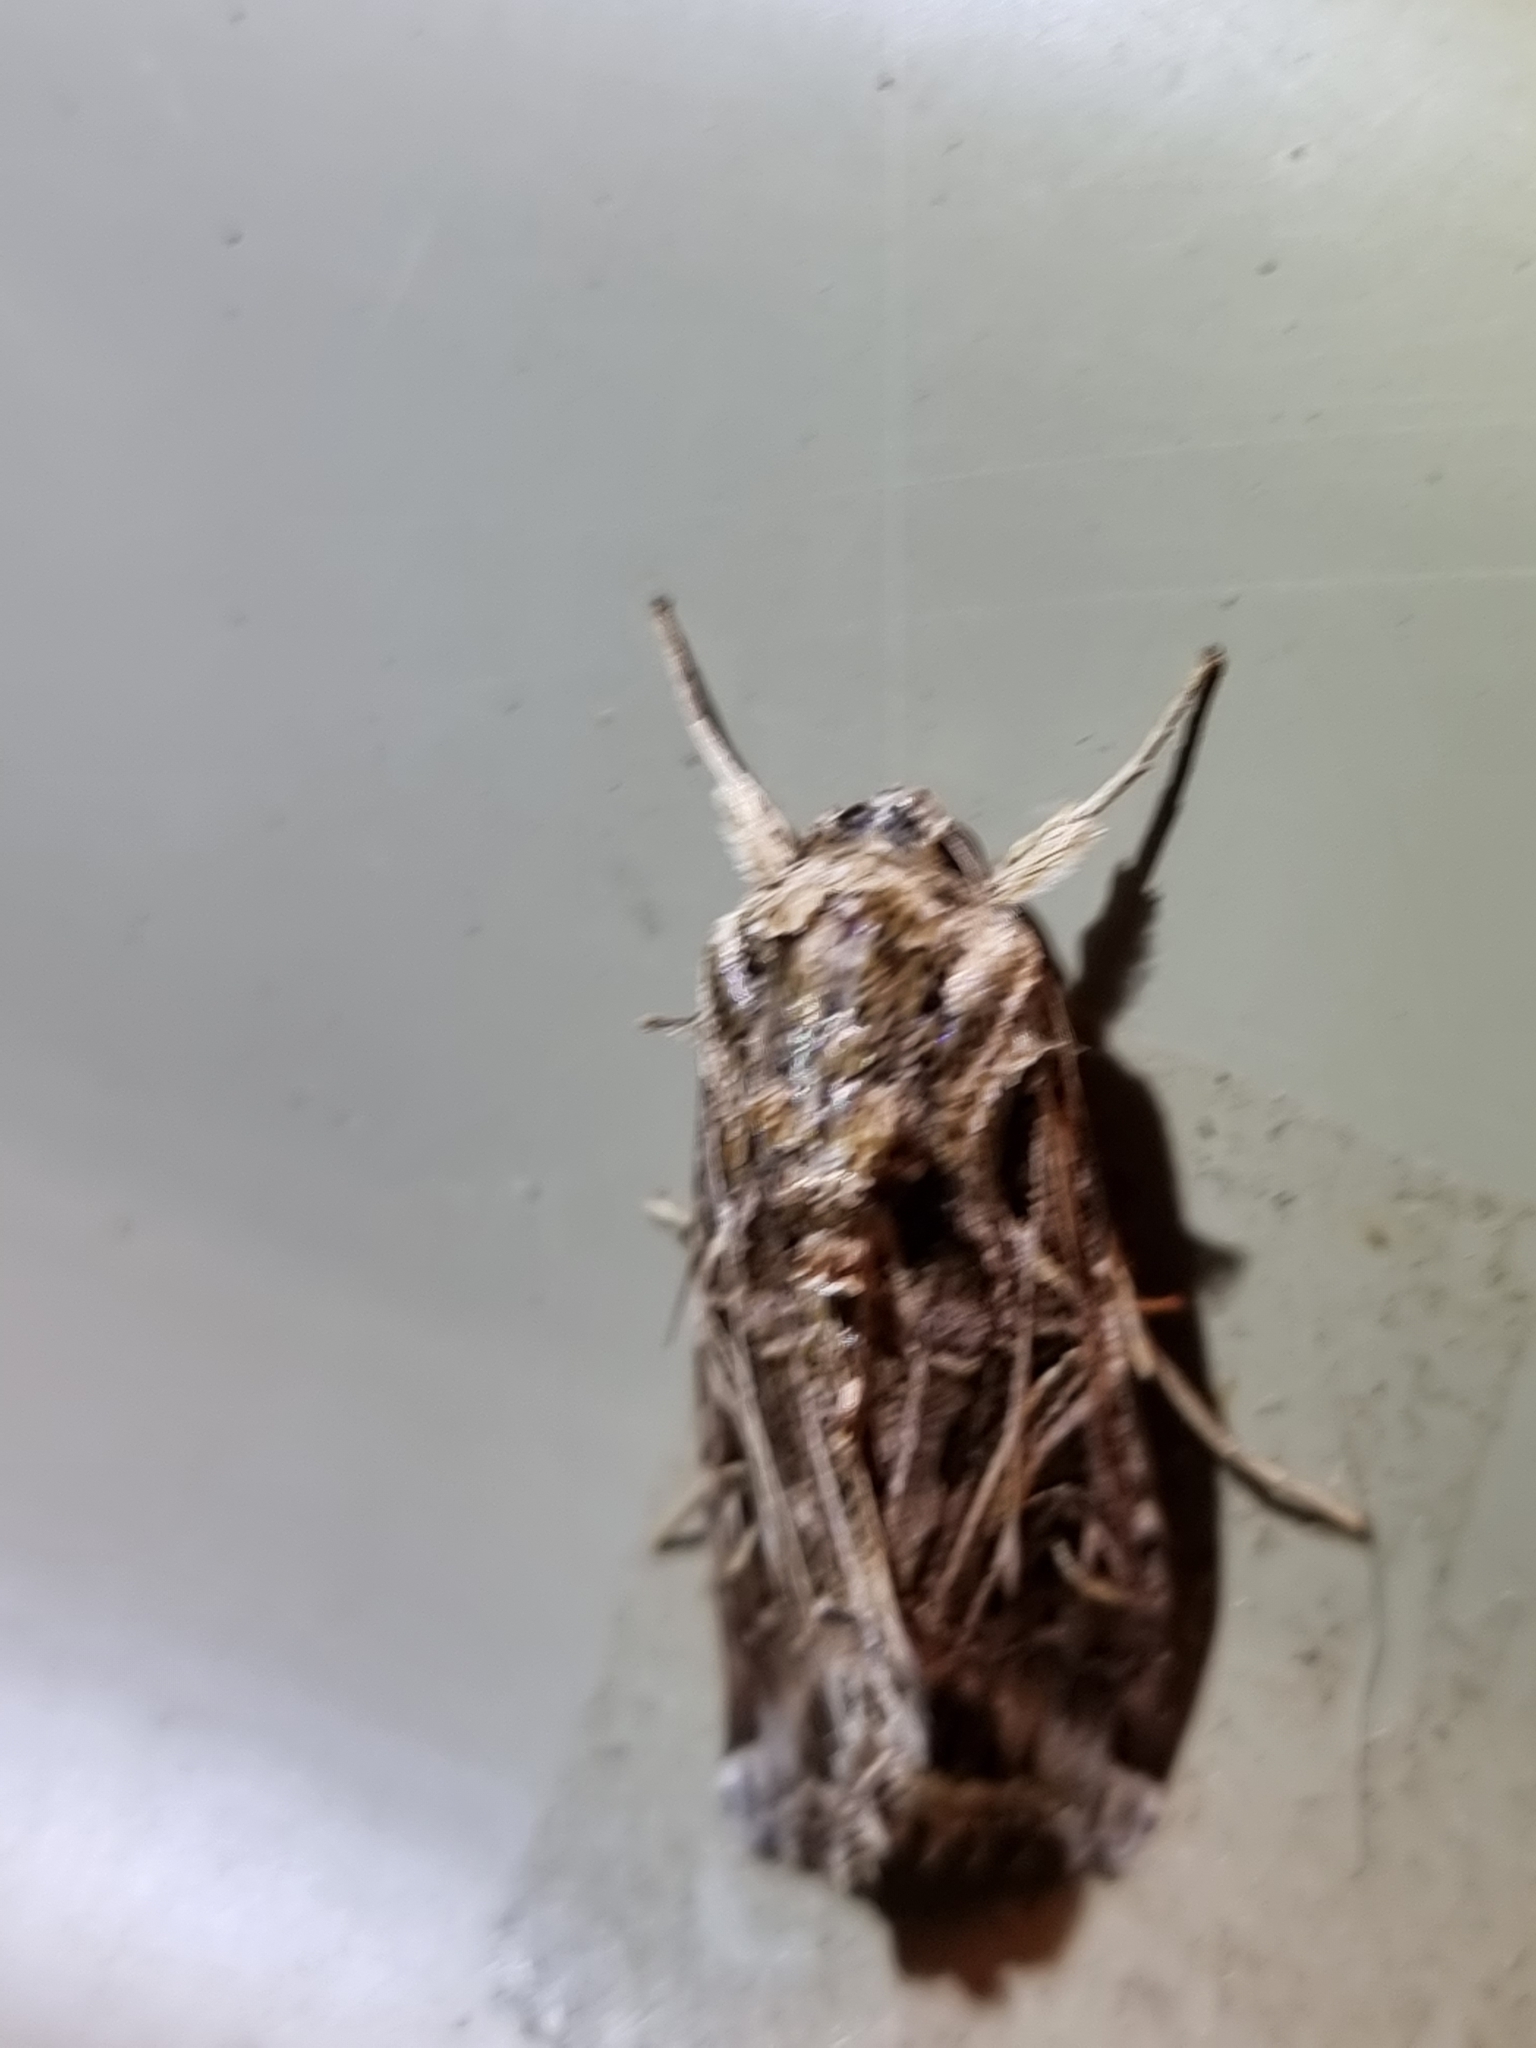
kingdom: Animalia
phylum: Arthropoda
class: Insecta
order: Lepidoptera
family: Noctuidae
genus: Spodoptera
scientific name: Spodoptera litura
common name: Asian cotton leafworm
